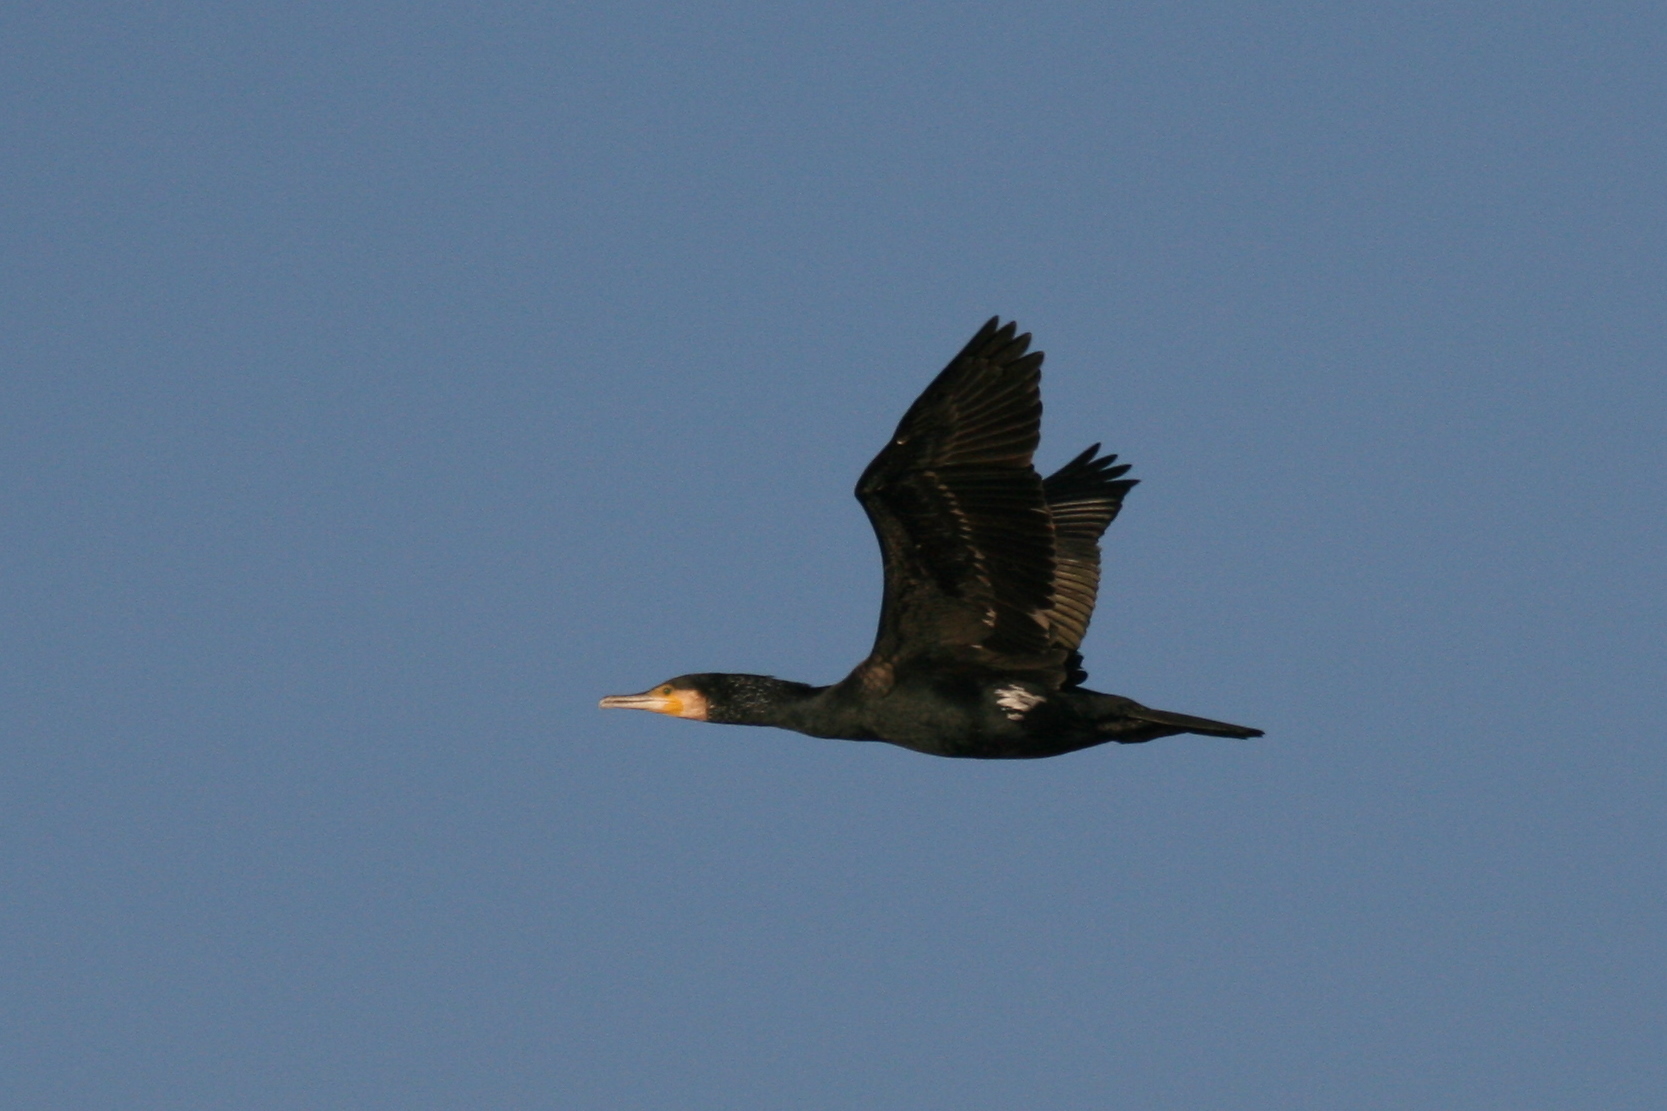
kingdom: Animalia
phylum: Chordata
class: Aves
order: Suliformes
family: Phalacrocoracidae
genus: Phalacrocorax
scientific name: Phalacrocorax carbo
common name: Great cormorant
